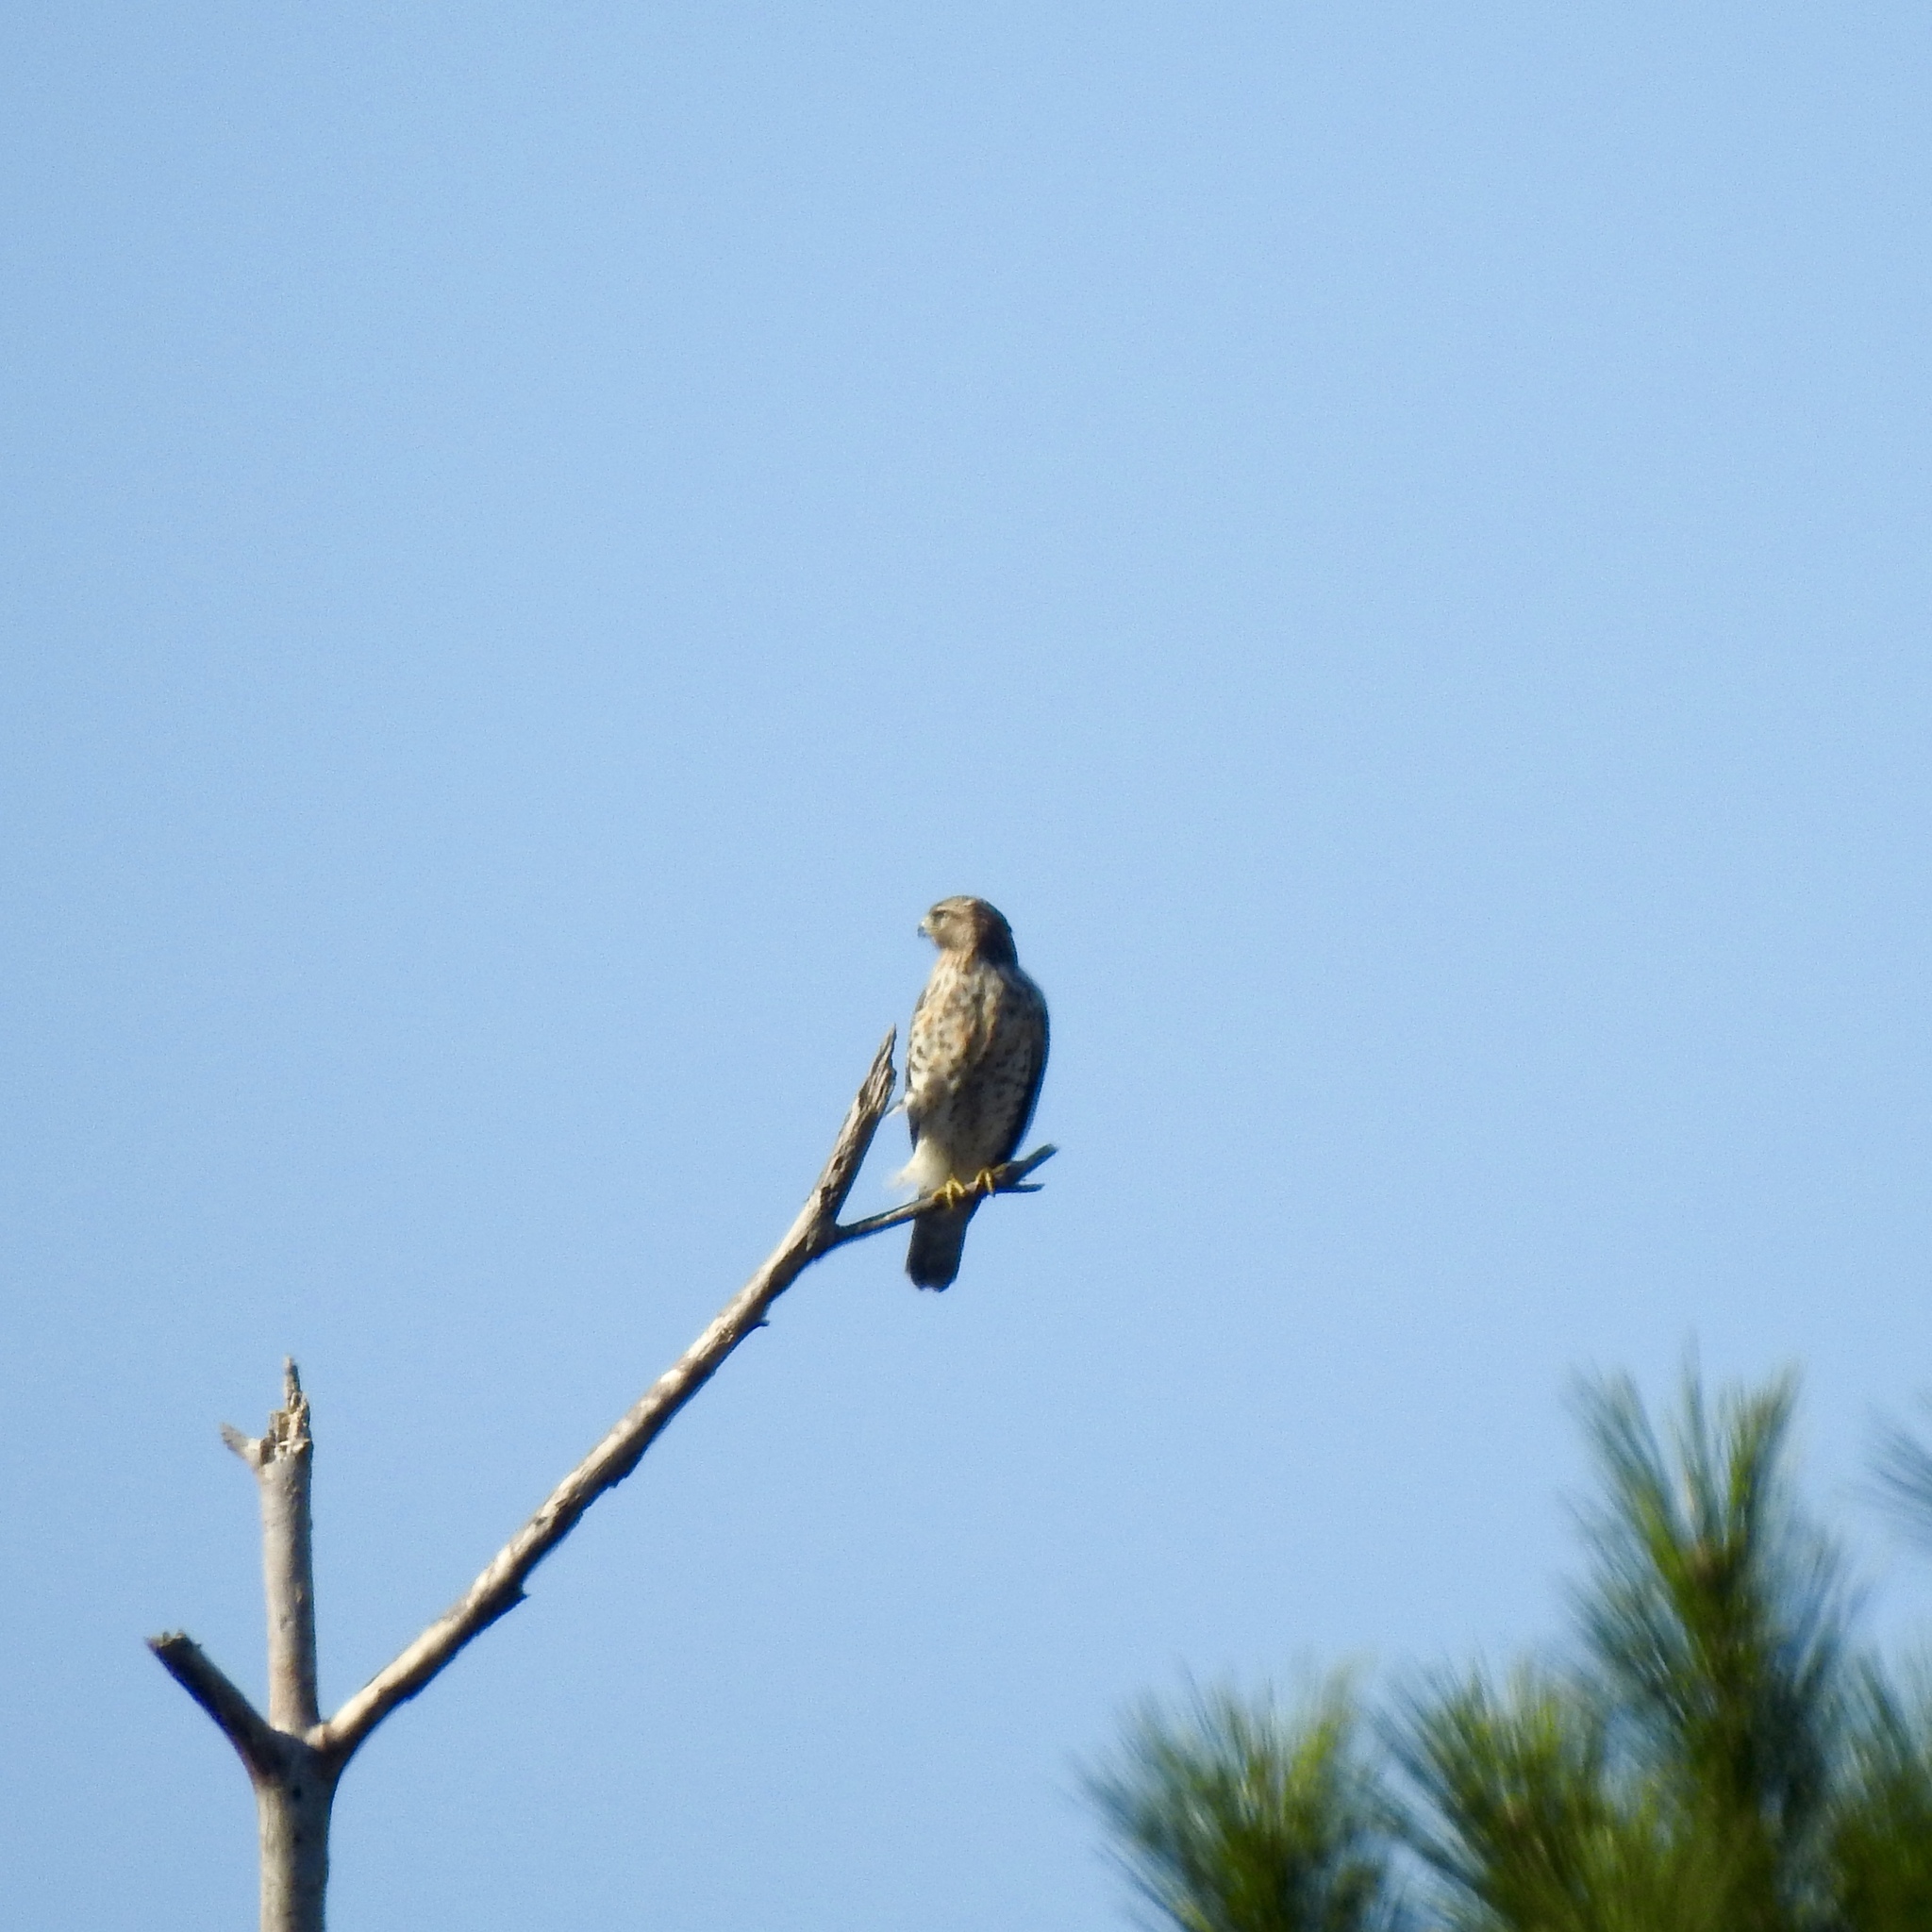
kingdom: Animalia
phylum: Chordata
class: Aves
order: Accipitriformes
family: Accipitridae
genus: Buteo
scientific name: Buteo lineatus
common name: Red-shouldered hawk
